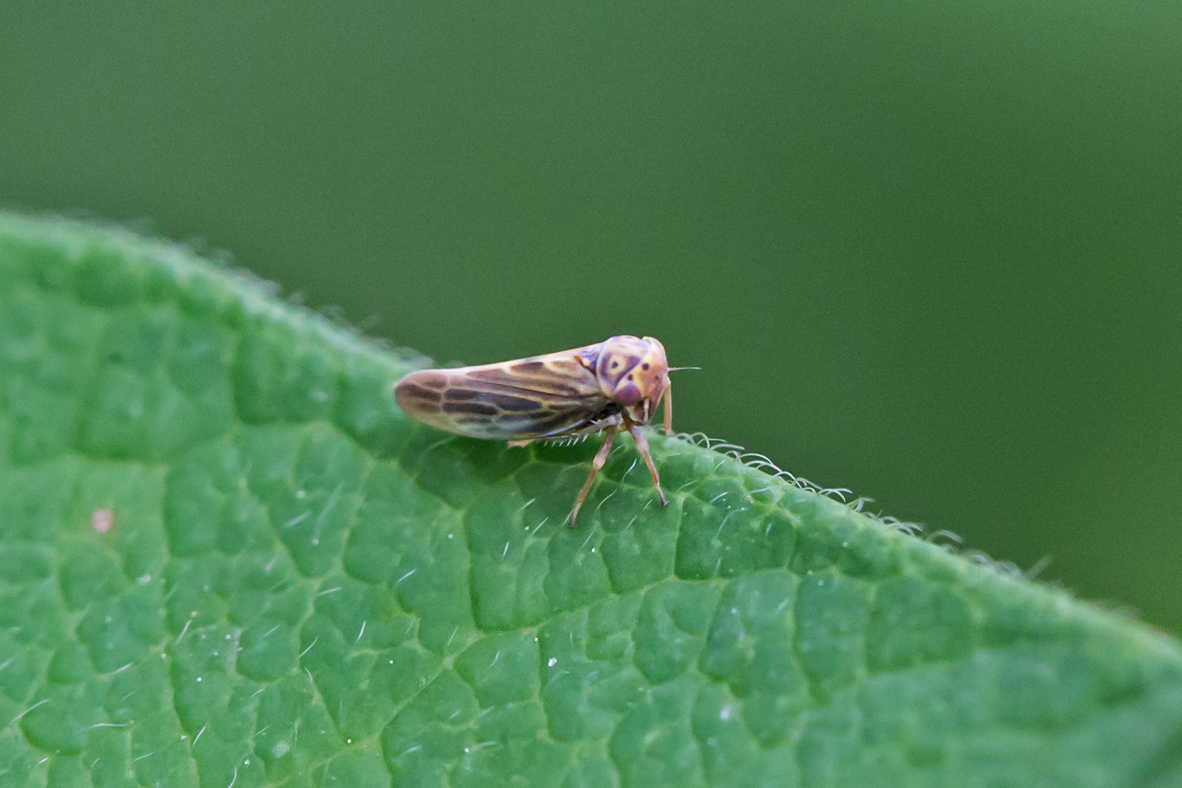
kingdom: Animalia
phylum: Arthropoda
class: Insecta
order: Hemiptera
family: Cicadellidae
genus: Agalliopsis
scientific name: Agalliopsis novella
